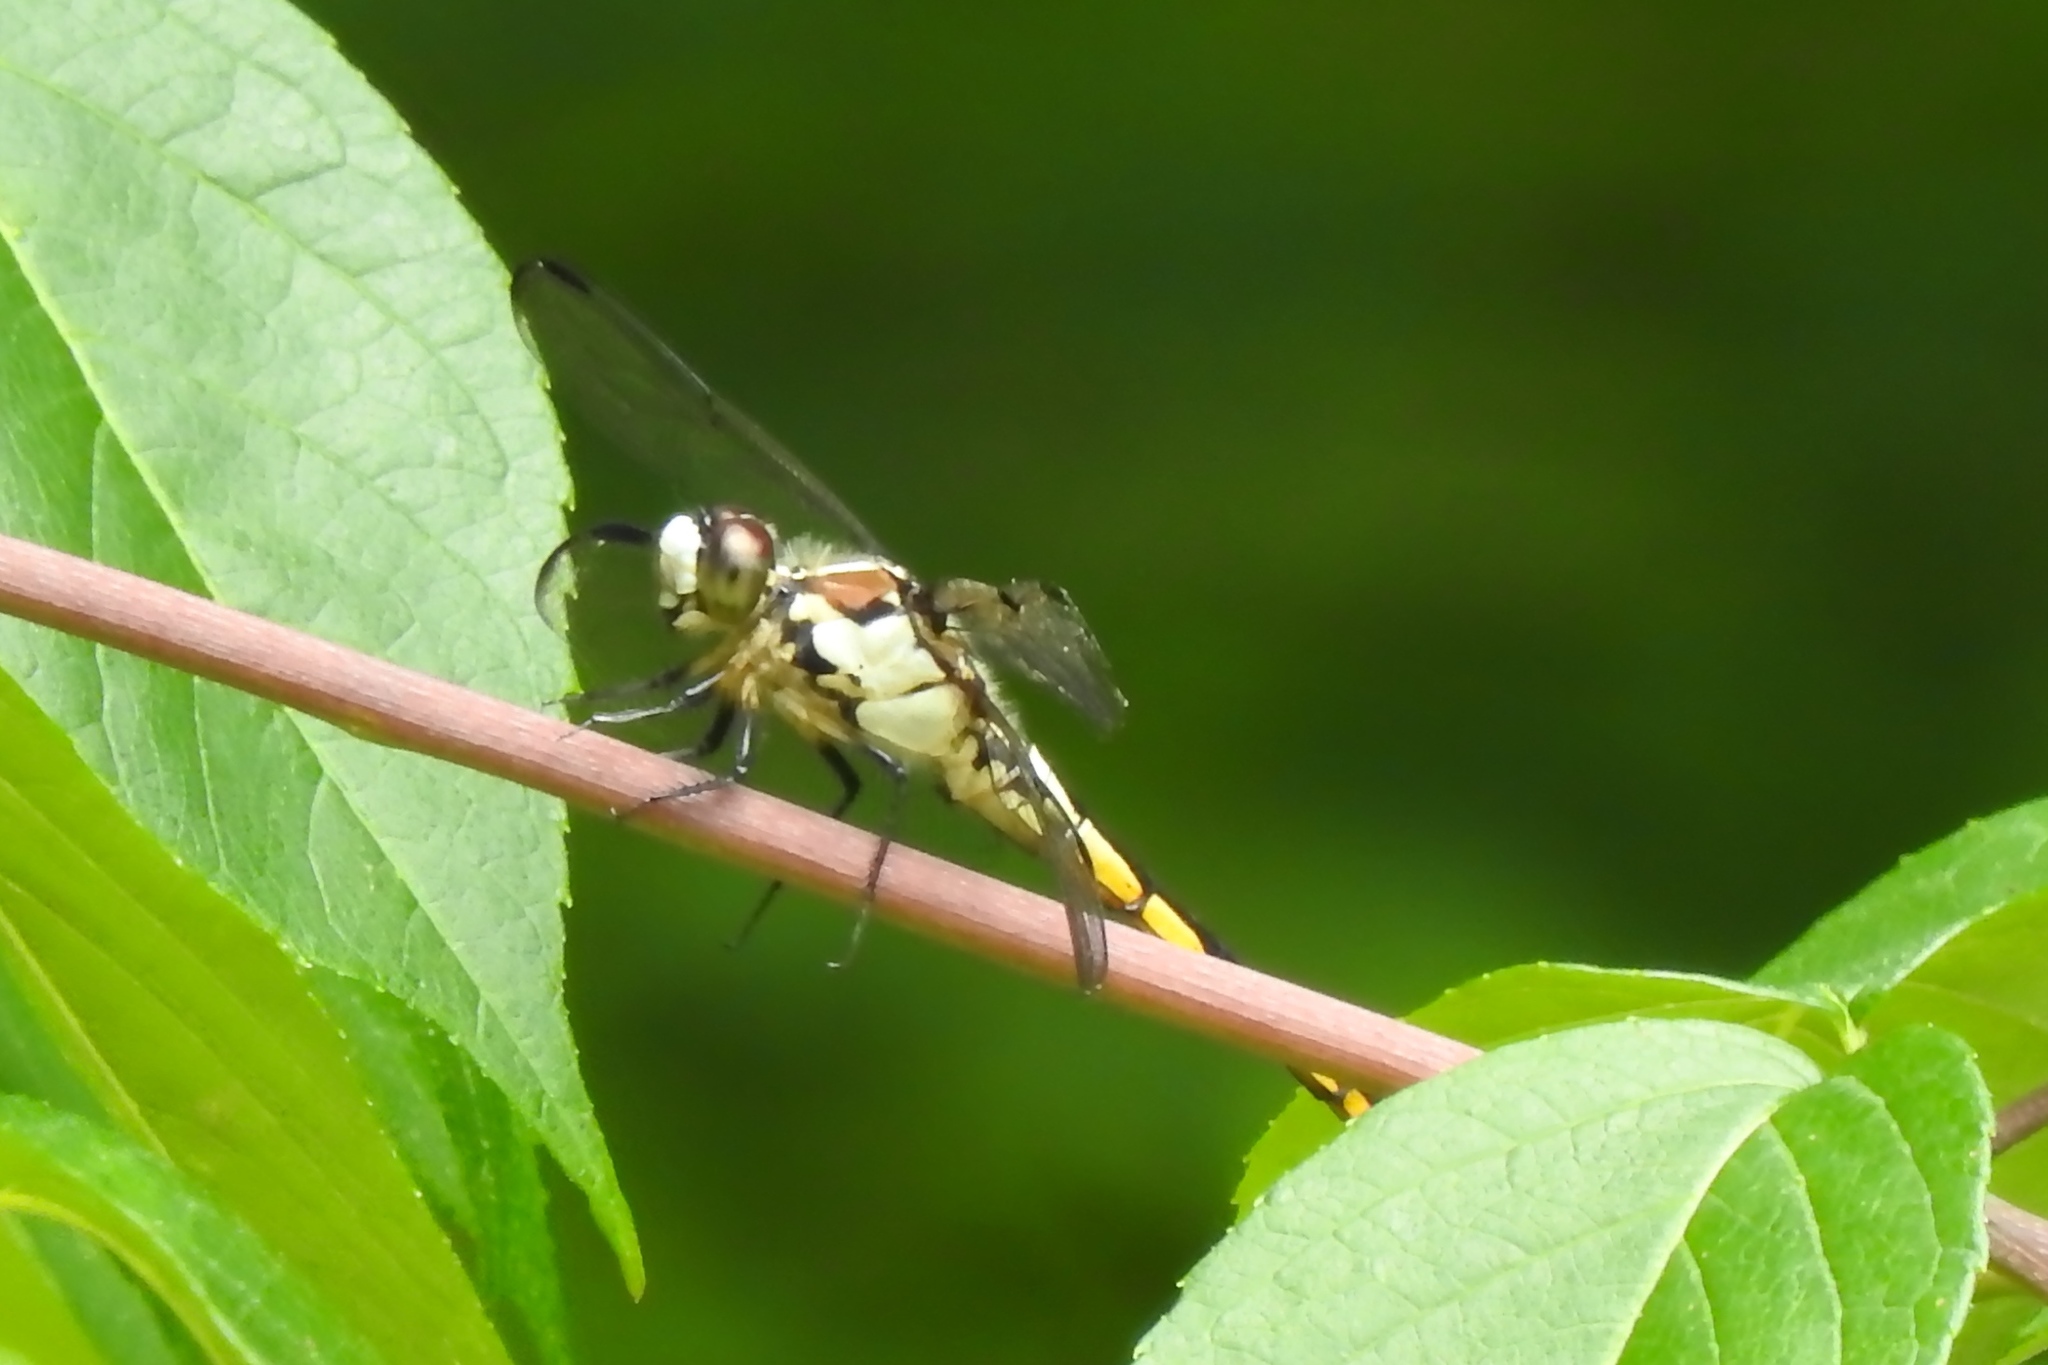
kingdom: Animalia
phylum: Arthropoda
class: Insecta
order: Odonata
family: Libellulidae
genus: Libellula
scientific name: Libellula vibrans
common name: Great blue skimmer
